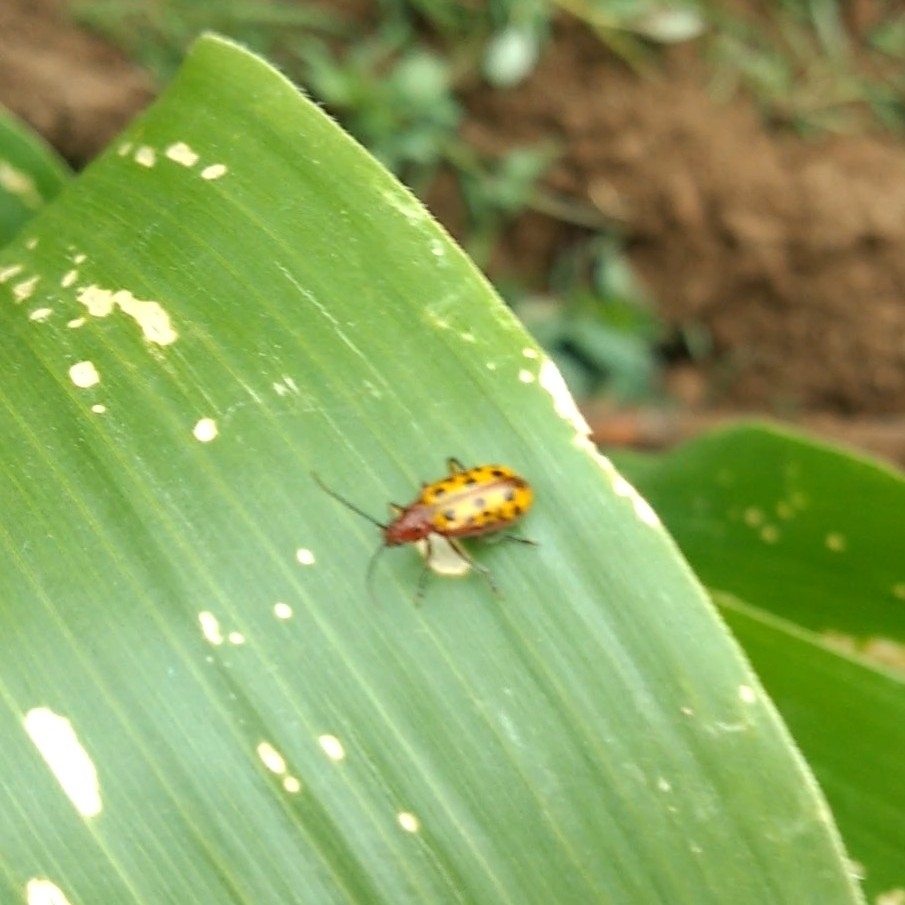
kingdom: Animalia
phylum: Arthropoda
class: Insecta
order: Coleoptera
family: Chrysomelidae
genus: Isotes
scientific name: Isotes
